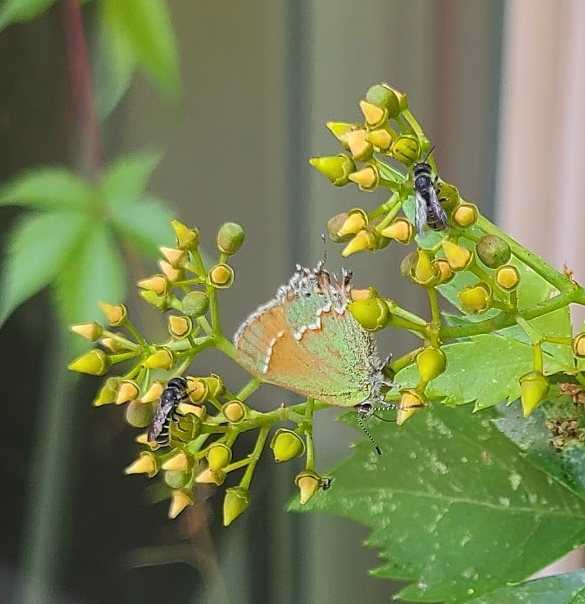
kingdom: Animalia
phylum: Arthropoda
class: Insecta
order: Lepidoptera
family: Lycaenidae
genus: Mitoura
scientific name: Mitoura gryneus
